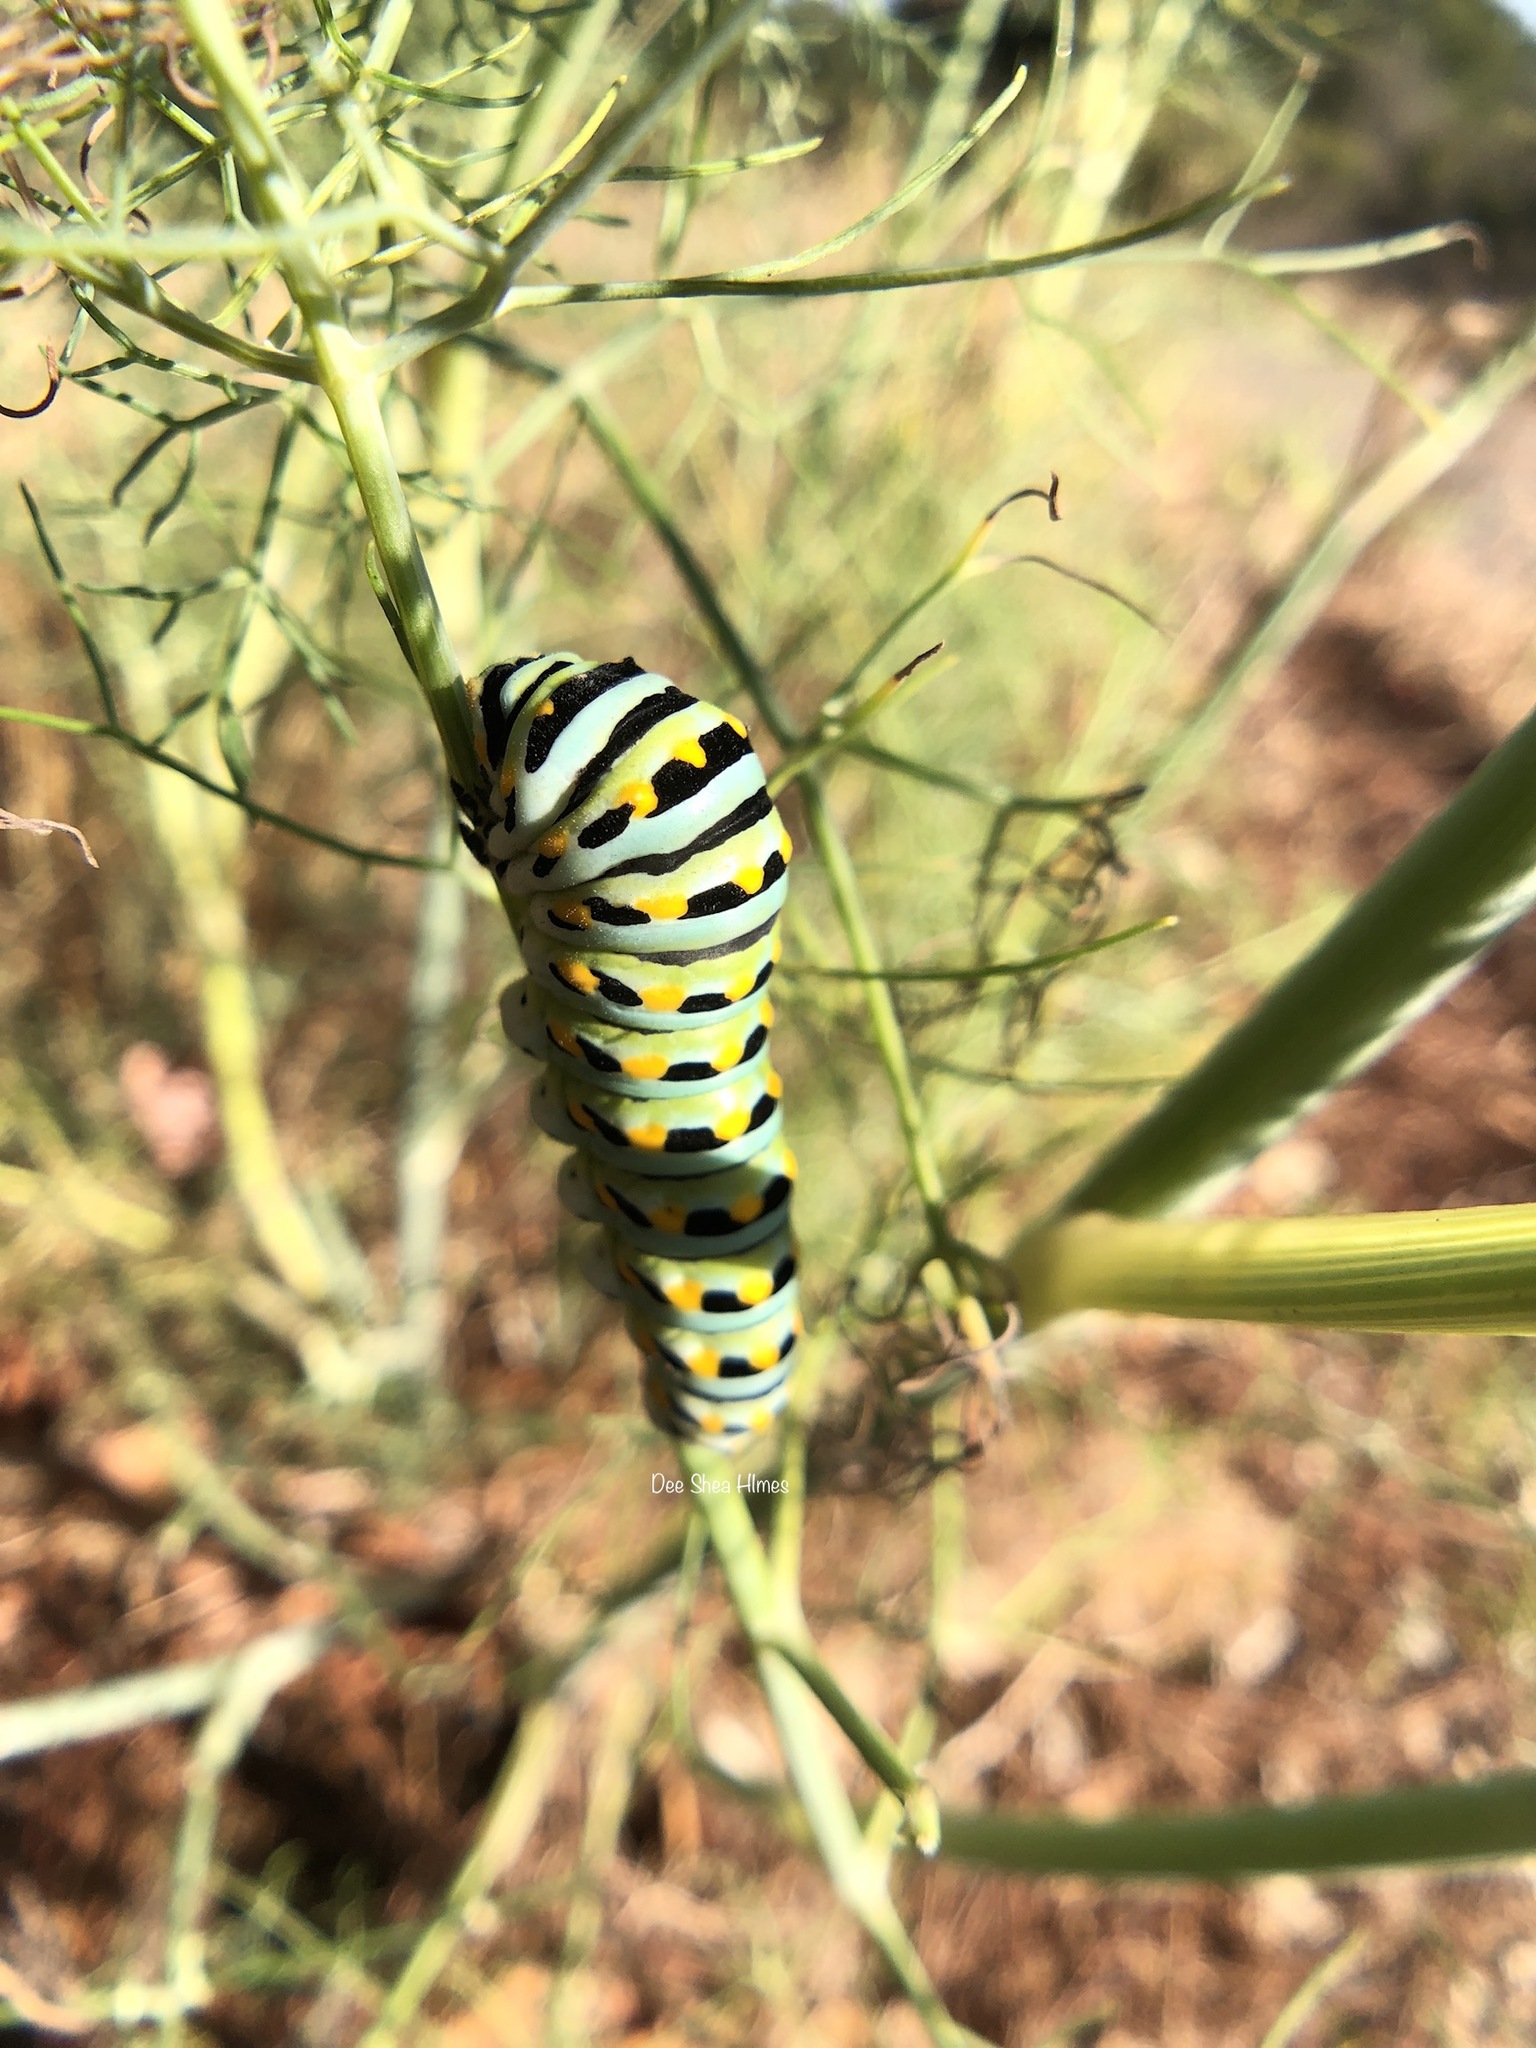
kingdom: Animalia
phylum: Arthropoda
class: Insecta
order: Lepidoptera
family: Papilionidae
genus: Papilio
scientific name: Papilio zelicaon
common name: Anise swallowtail
